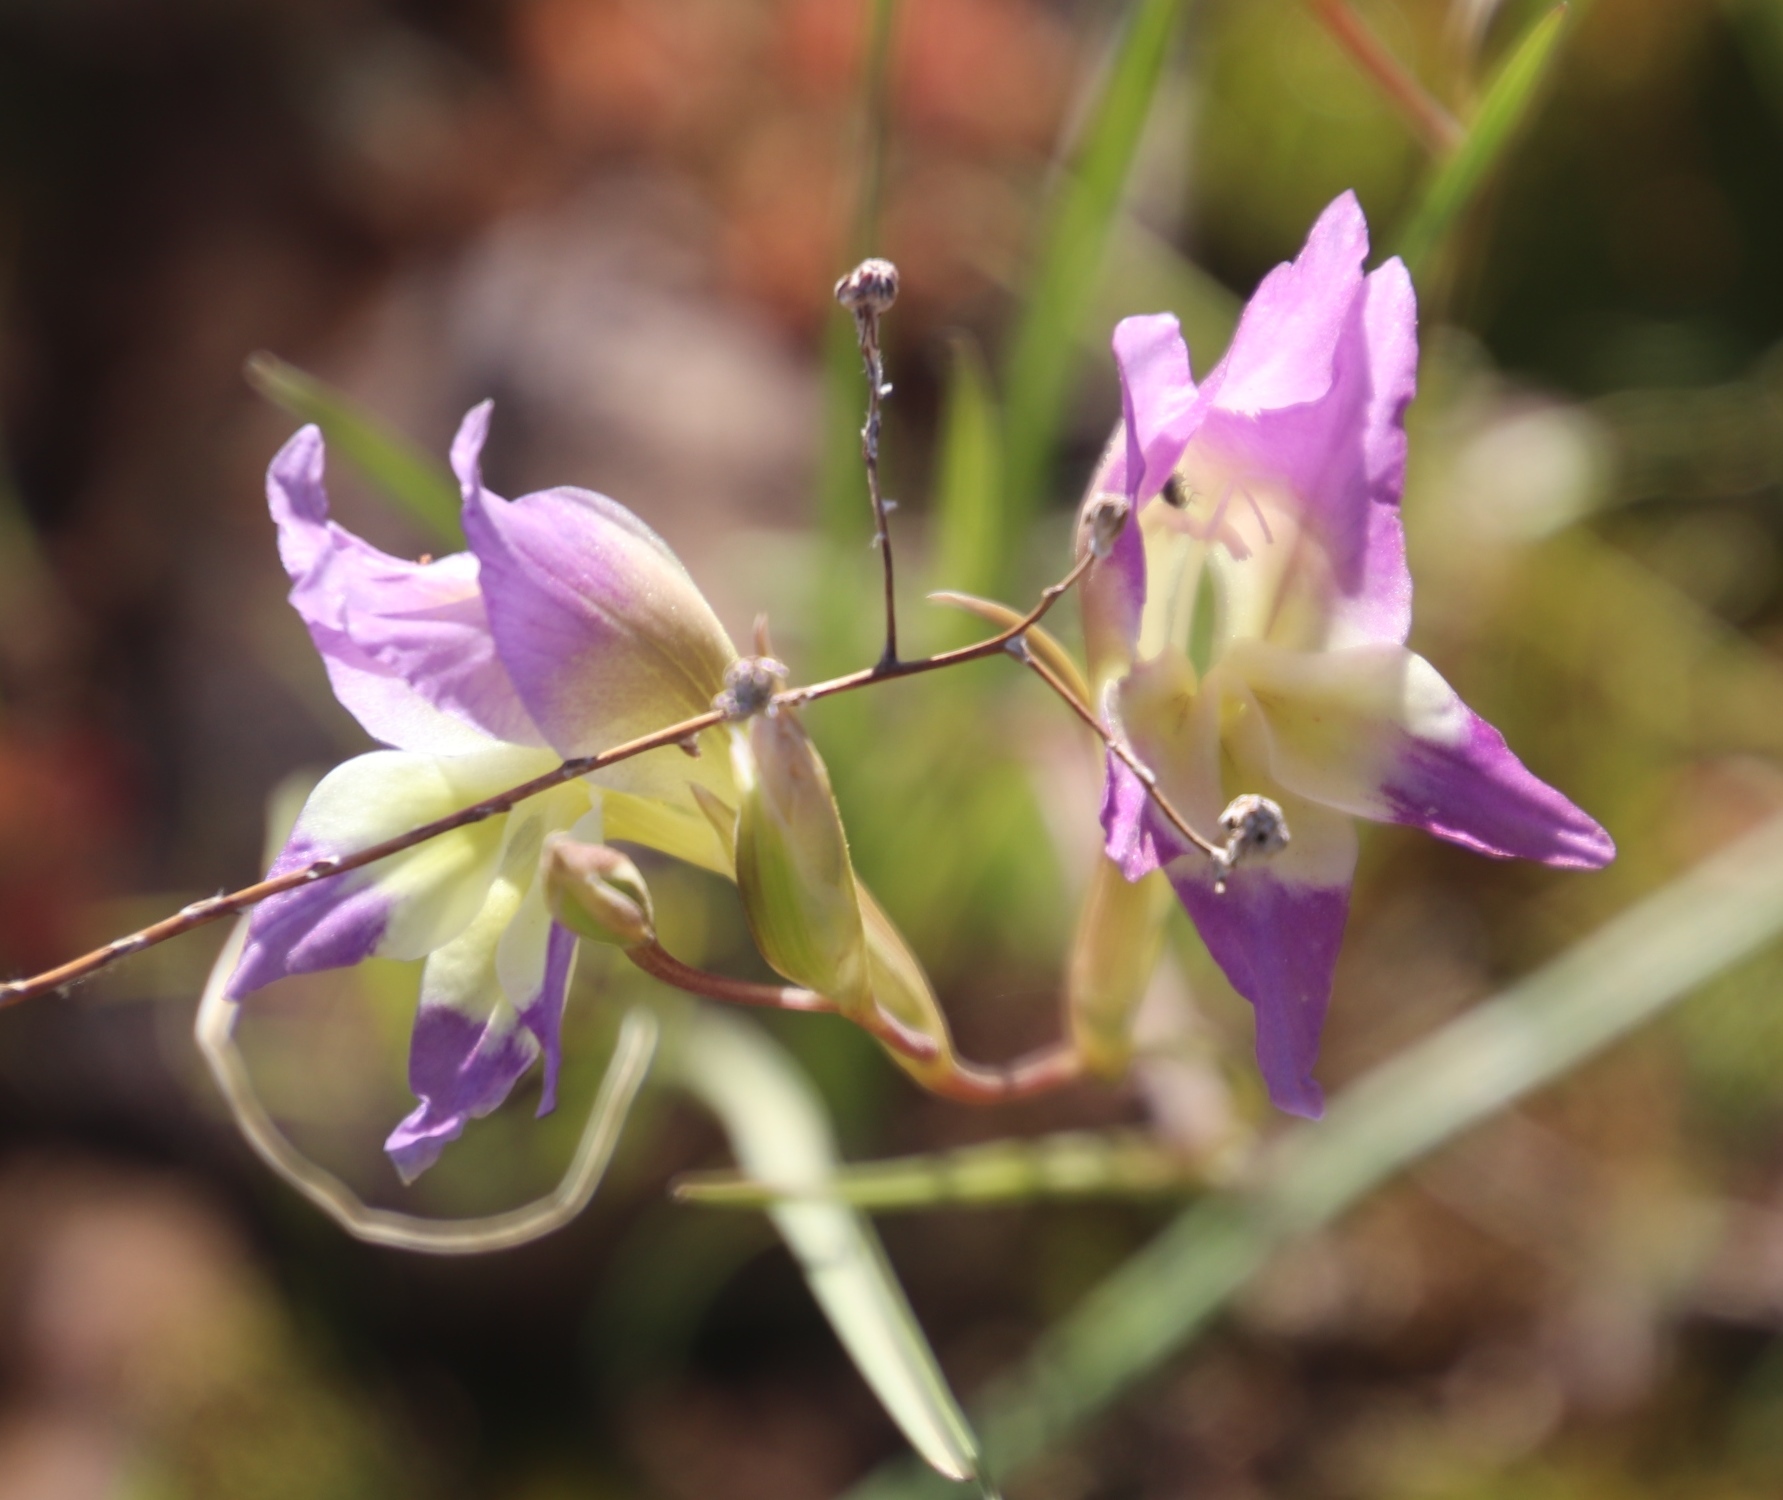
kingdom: Plantae
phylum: Tracheophyta
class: Liliopsida
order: Asparagales
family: Iridaceae
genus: Gladiolus
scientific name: Gladiolus venustus
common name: Purple kalkoentjie
